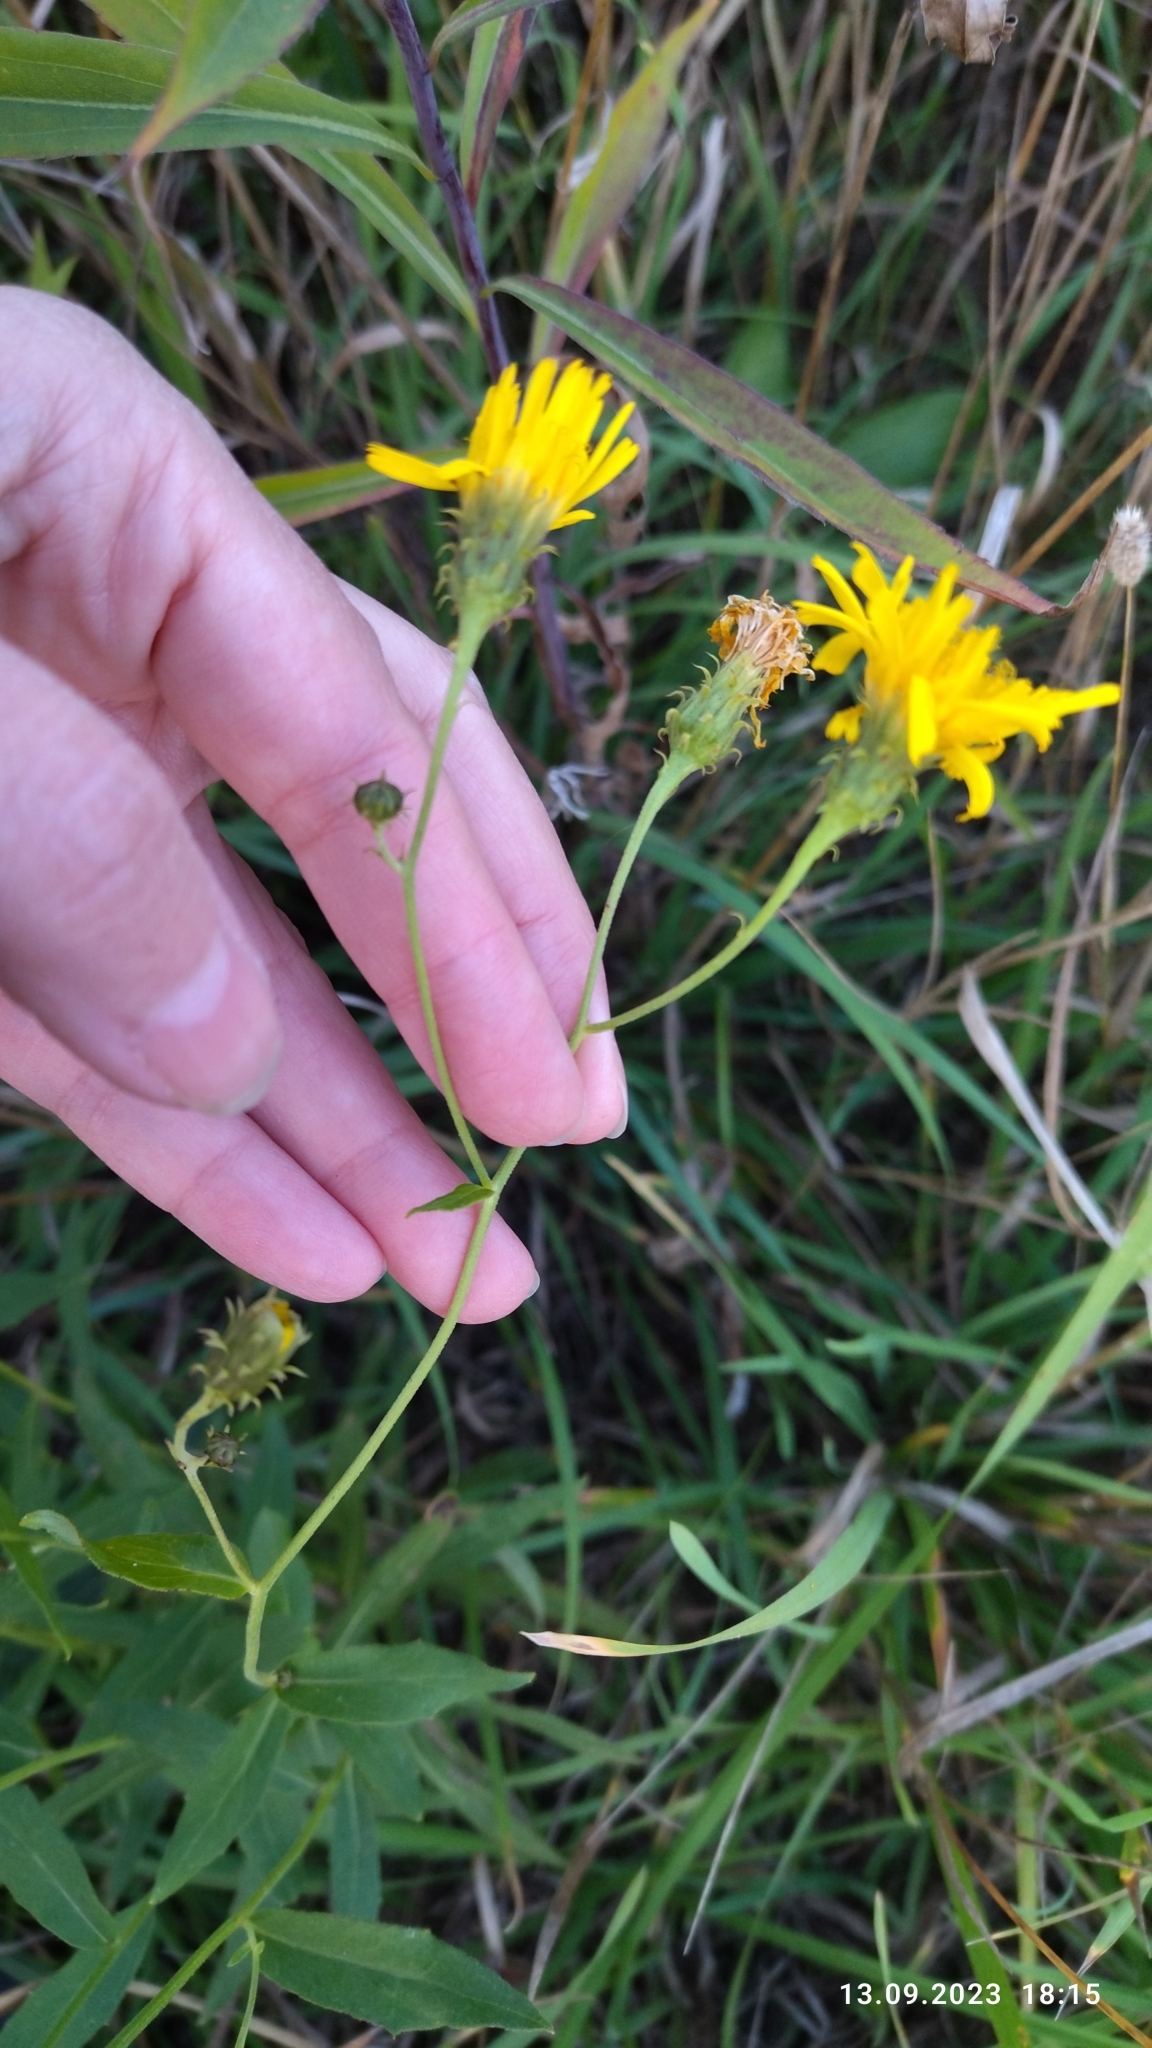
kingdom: Plantae
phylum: Tracheophyta
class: Magnoliopsida
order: Asterales
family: Asteraceae
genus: Hieracium
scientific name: Hieracium umbellatum
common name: Northern hawkweed
